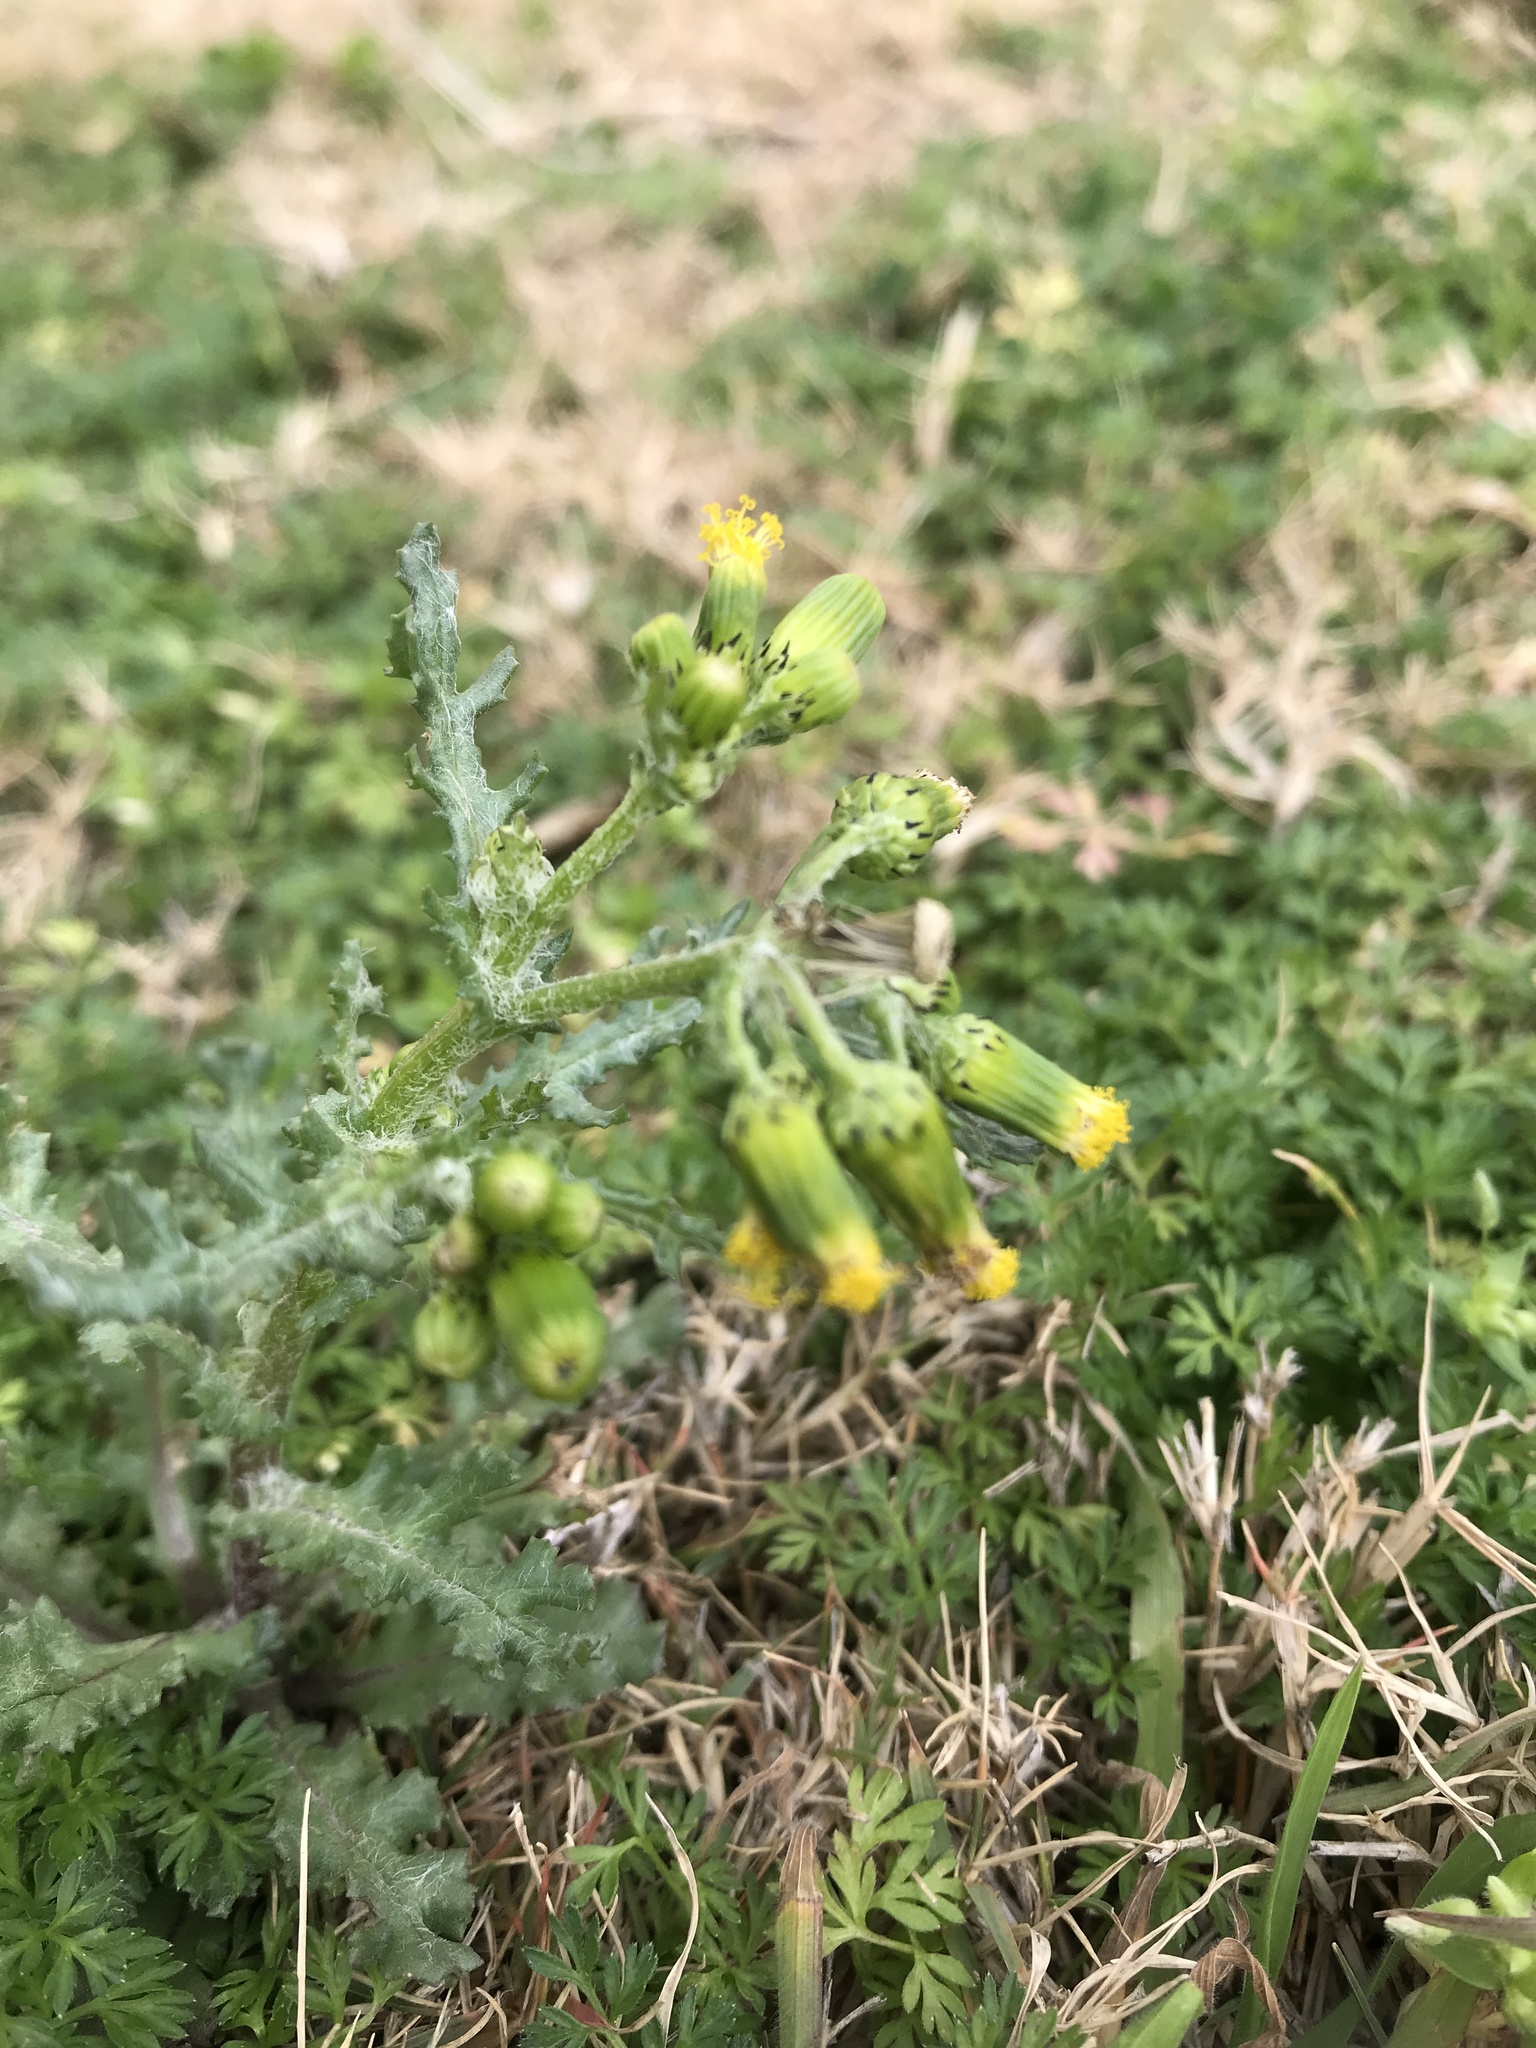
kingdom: Plantae
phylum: Tracheophyta
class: Magnoliopsida
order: Asterales
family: Asteraceae
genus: Senecio
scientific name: Senecio vulgaris
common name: Old-man-in-the-spring
